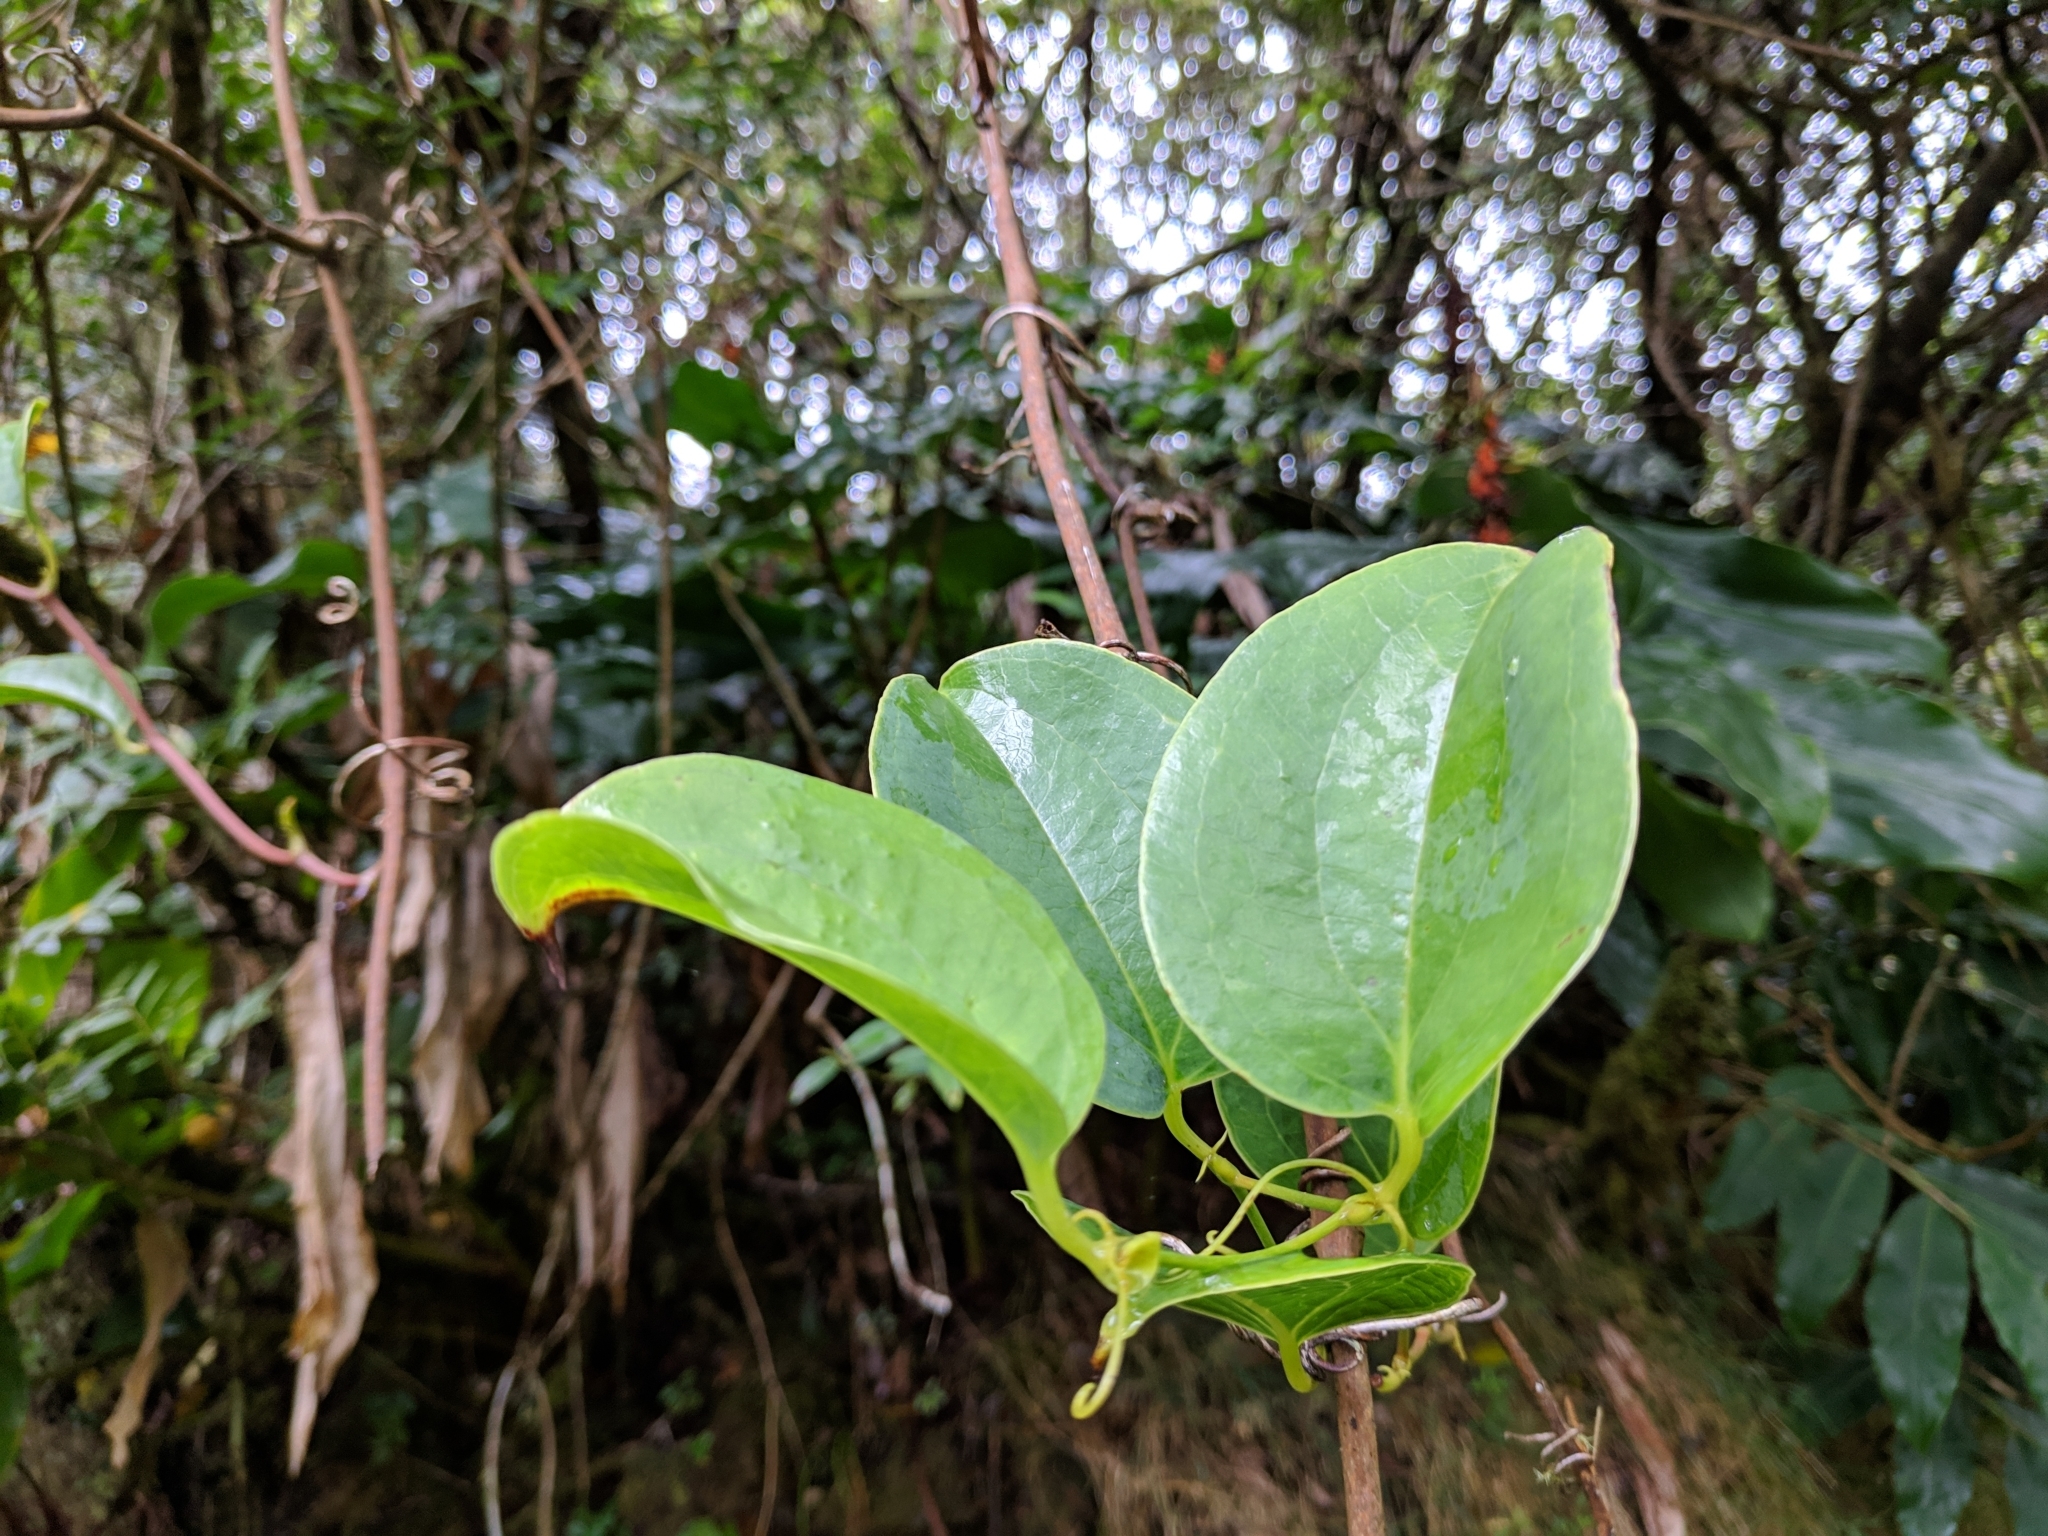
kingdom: Plantae
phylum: Tracheophyta
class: Liliopsida
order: Liliales
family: Smilacaceae
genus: Smilax
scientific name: Smilax anceps
